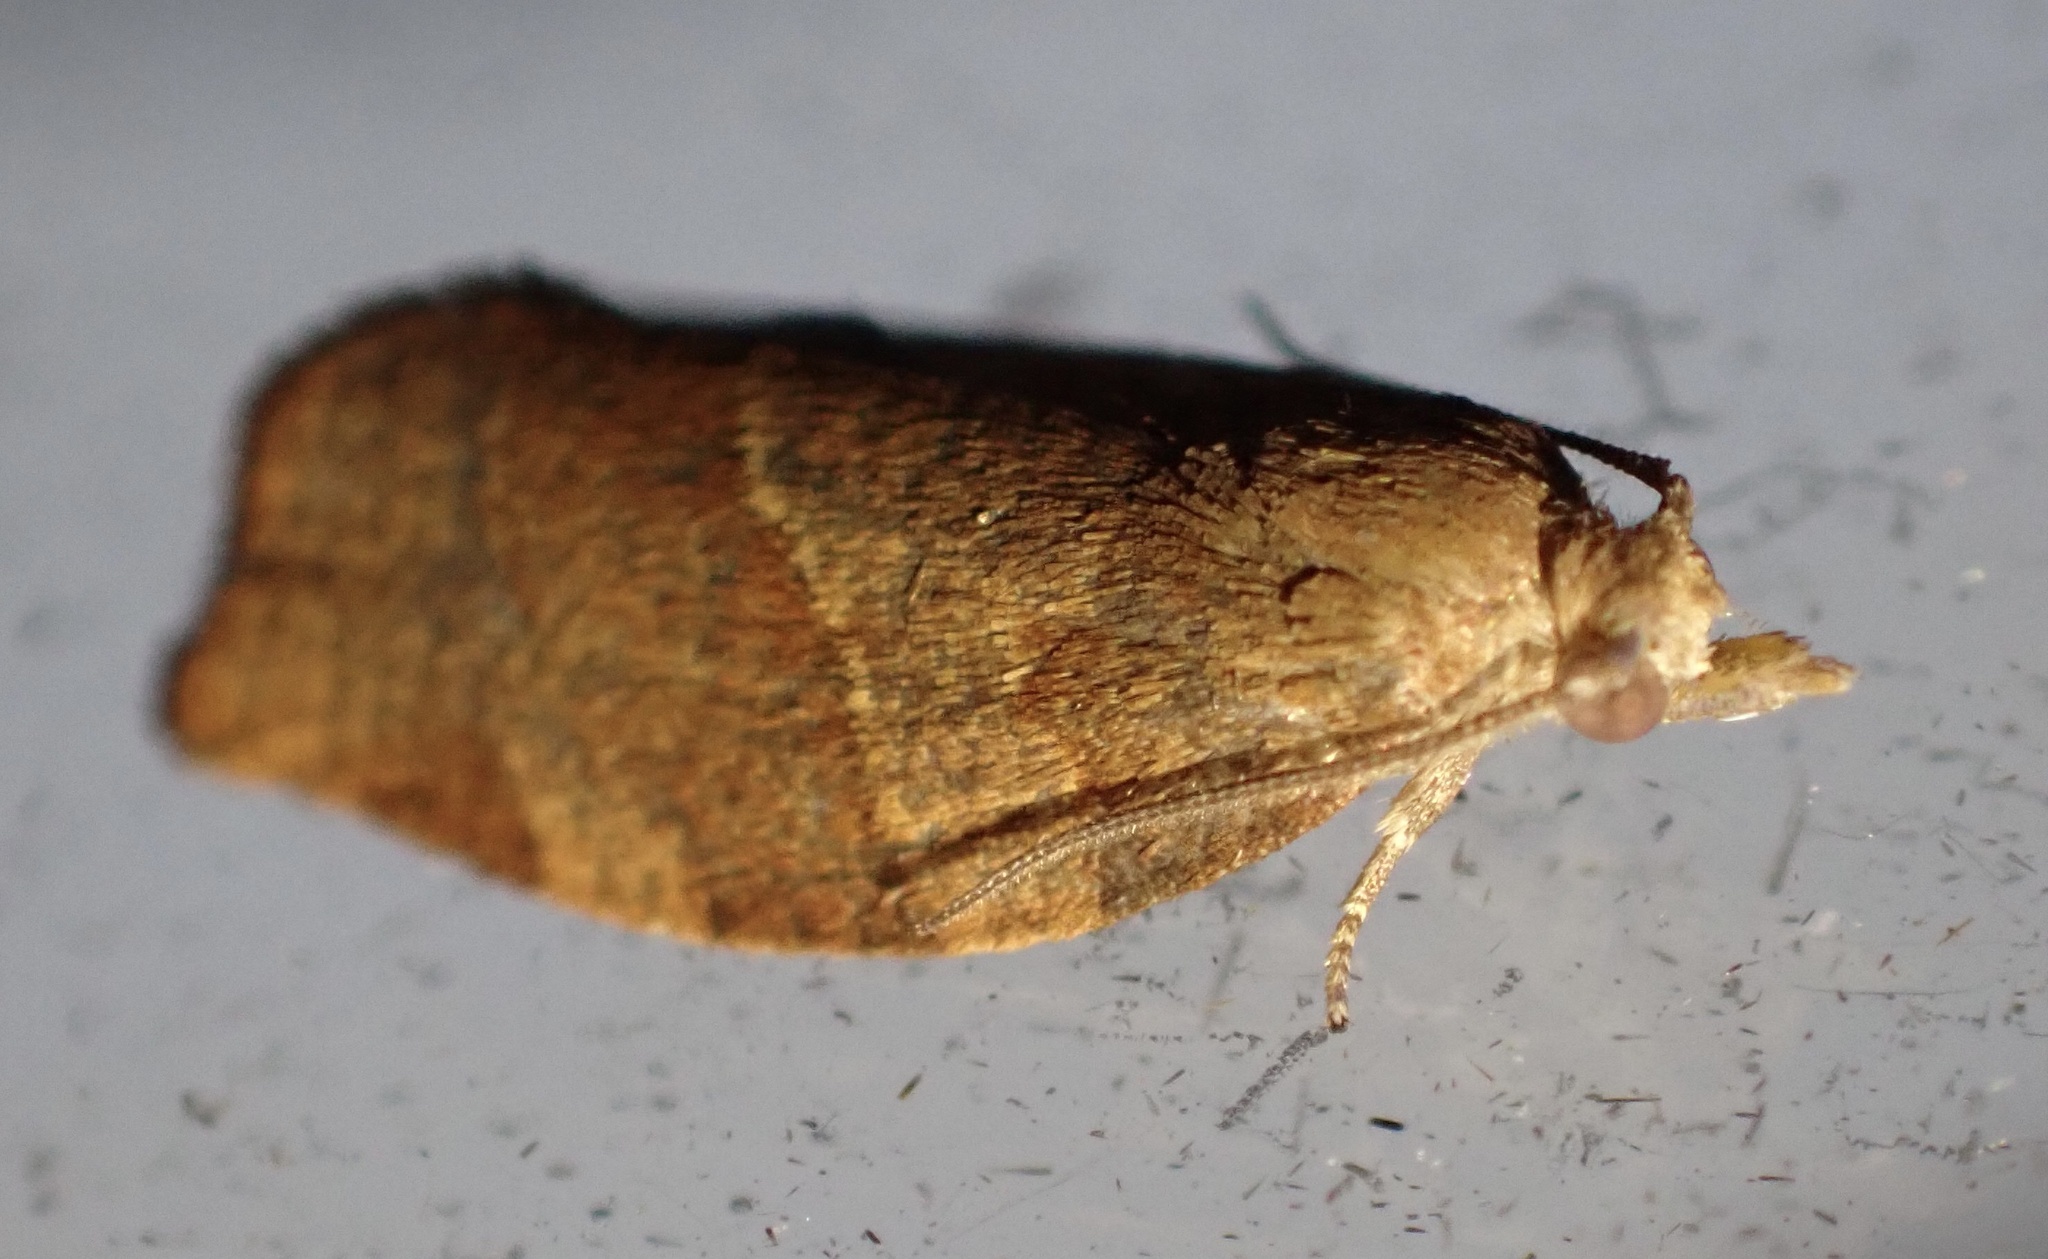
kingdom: Animalia
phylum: Arthropoda
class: Insecta
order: Lepidoptera
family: Tortricidae
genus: Pandemis
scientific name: Pandemis heparana
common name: Dark fruit-tree tortrix
